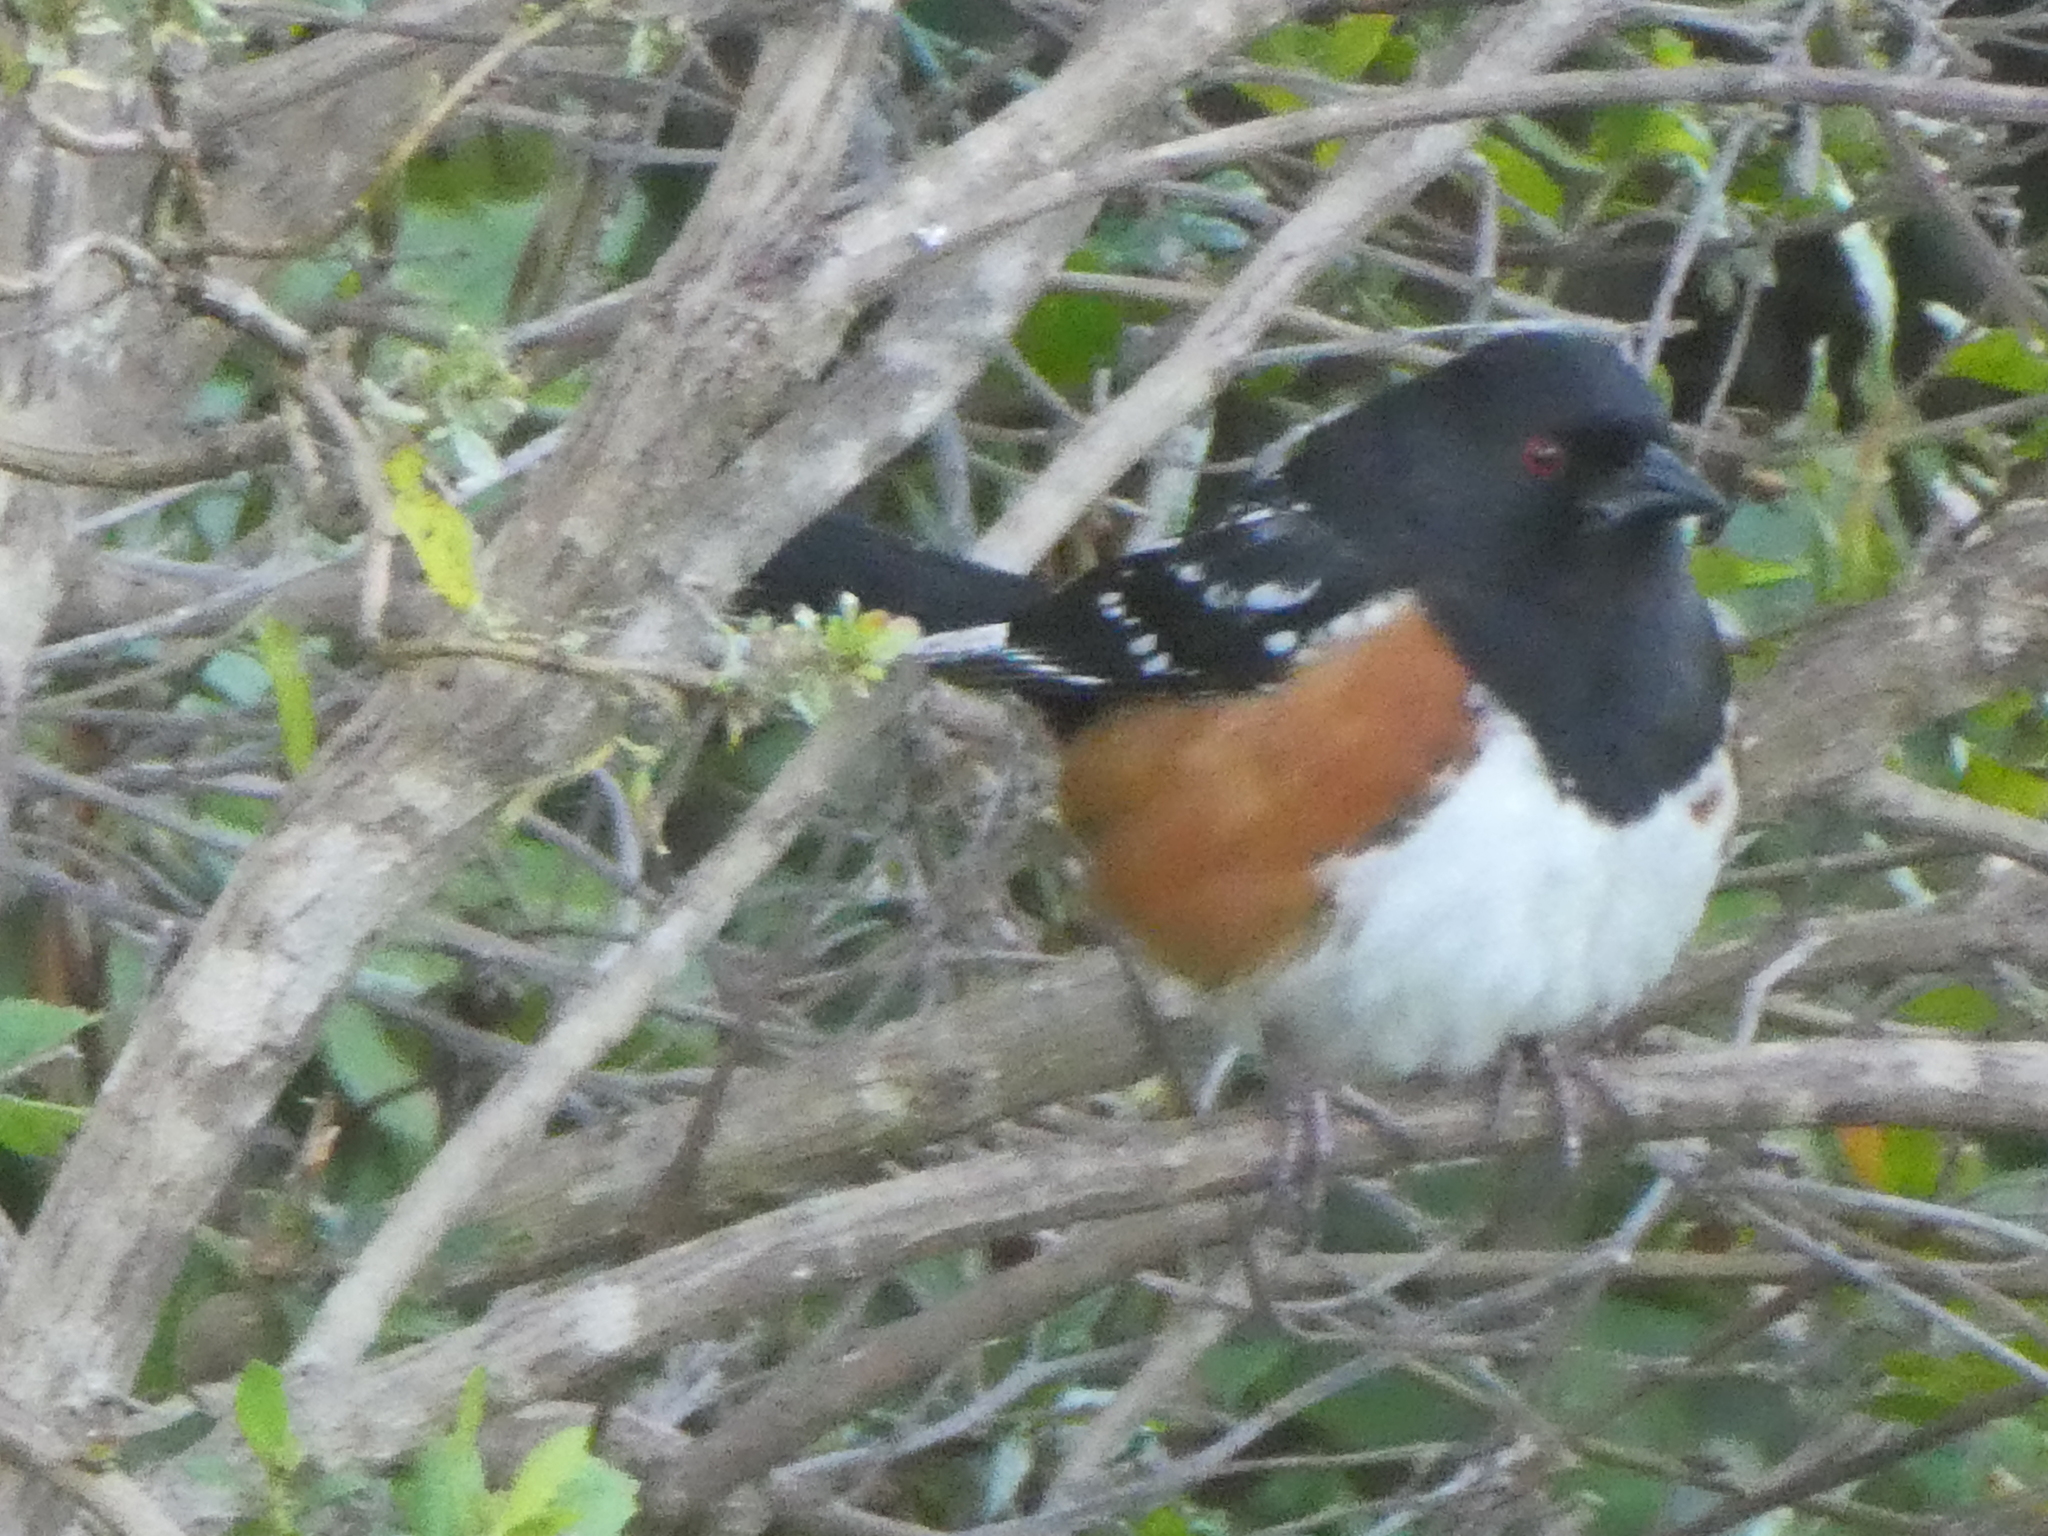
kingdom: Animalia
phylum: Chordata
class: Aves
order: Passeriformes
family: Passerellidae
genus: Pipilo
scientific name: Pipilo maculatus
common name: Spotted towhee
